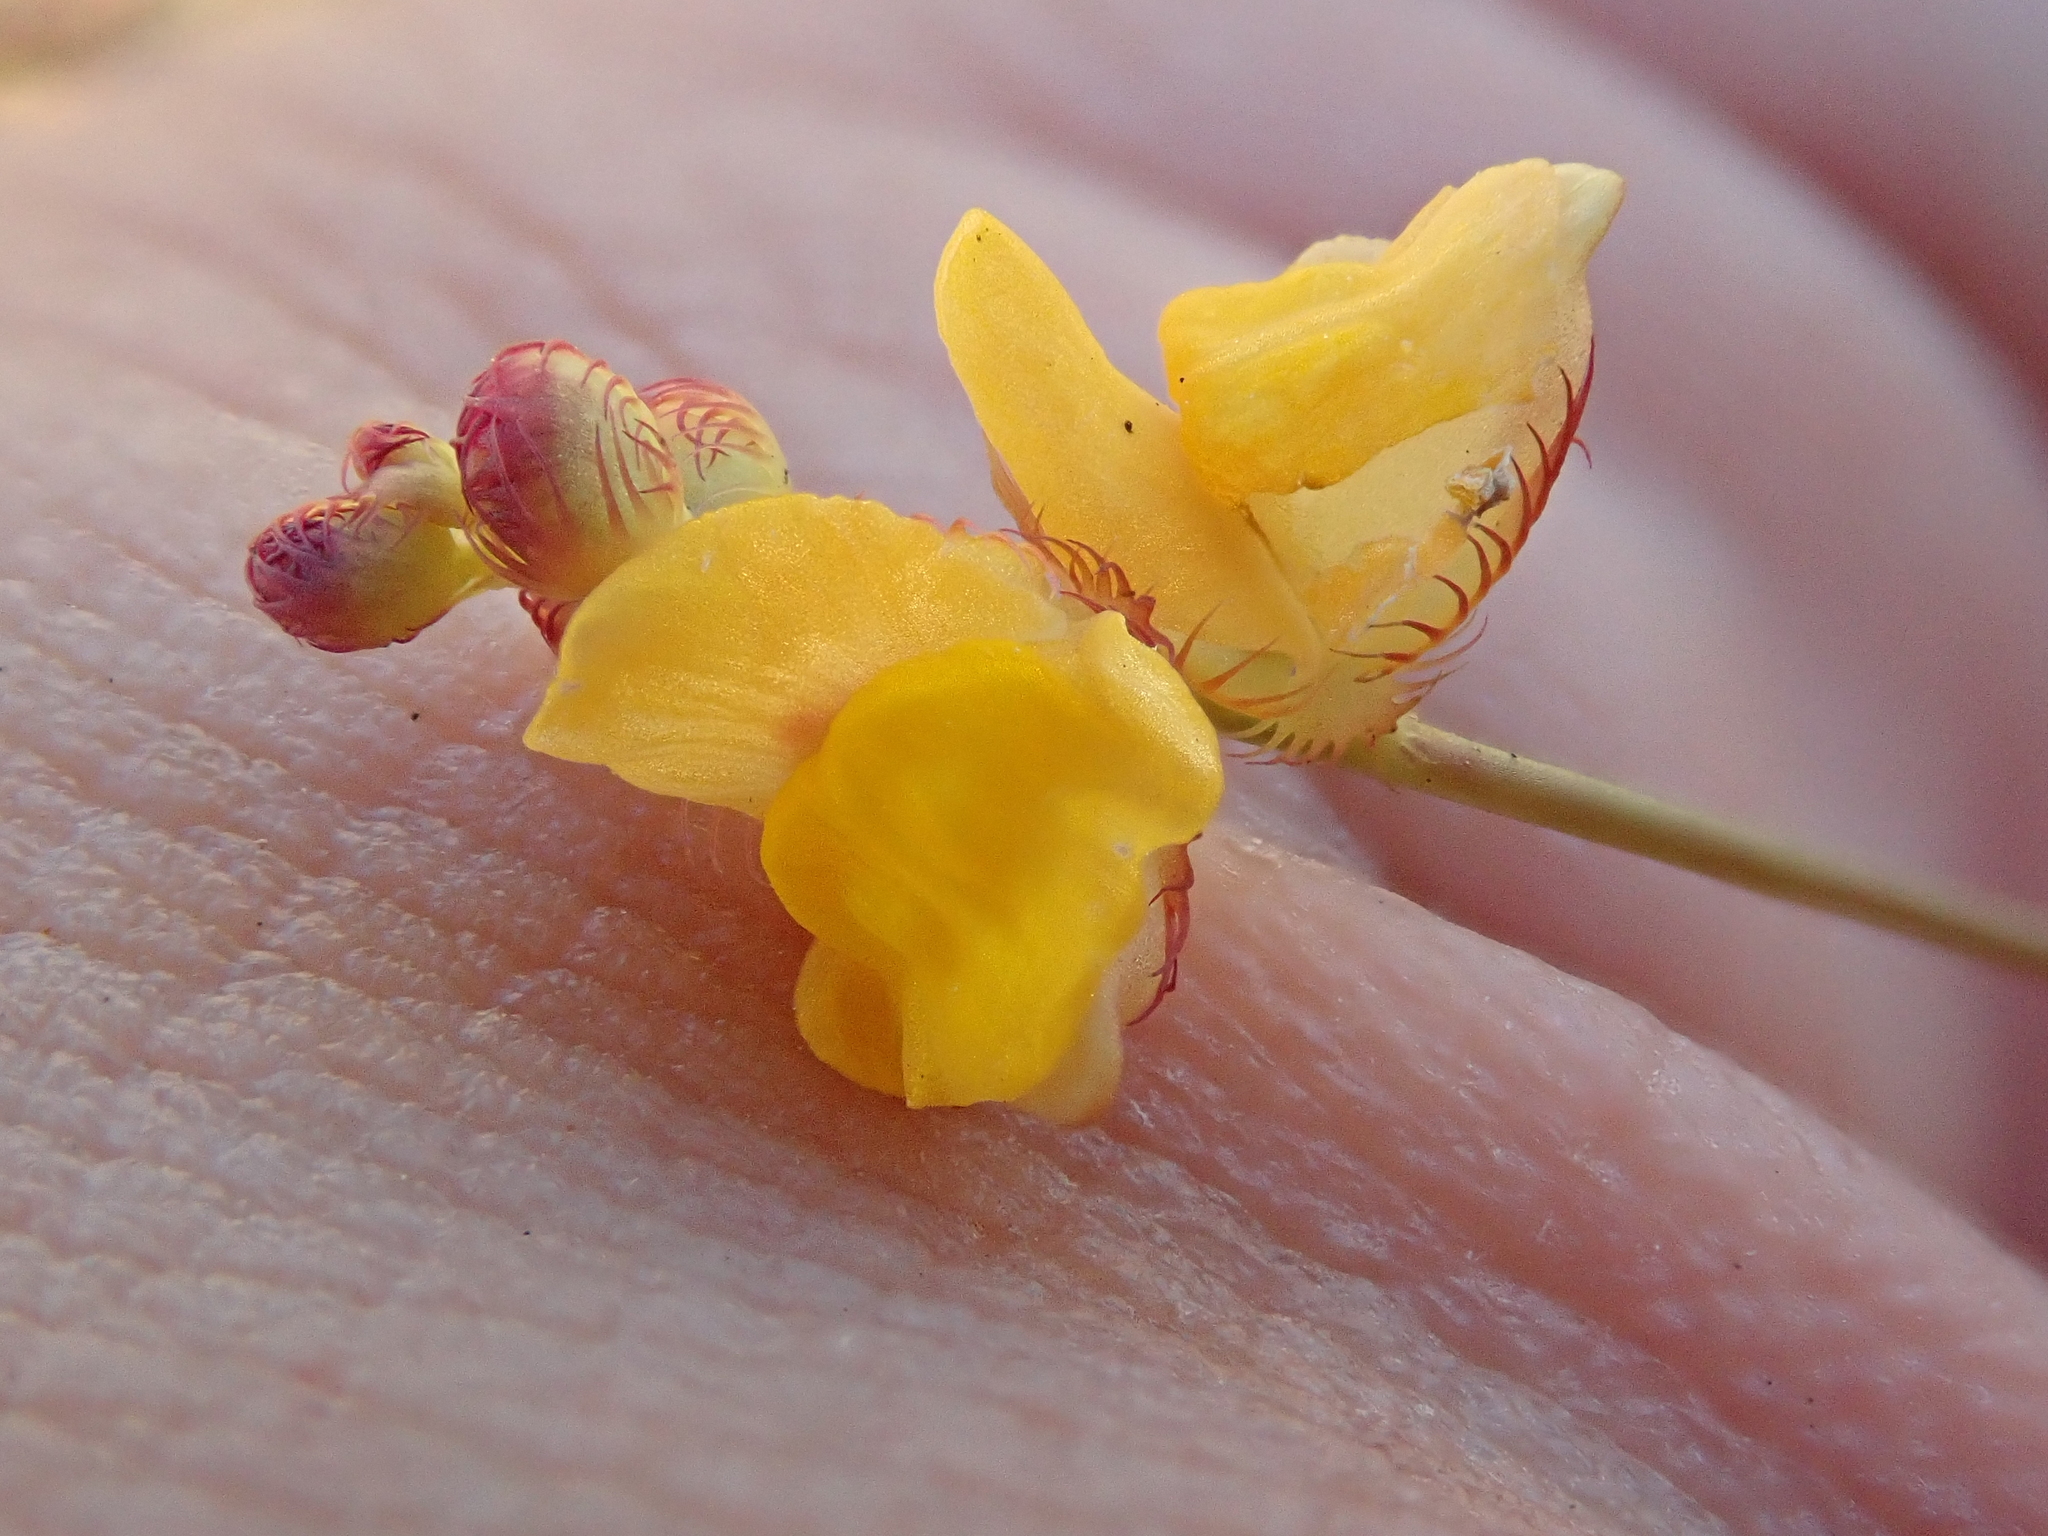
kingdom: Plantae
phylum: Tracheophyta
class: Magnoliopsida
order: Lamiales
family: Lentibulariaceae
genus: Utricularia
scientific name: Utricularia simulans
